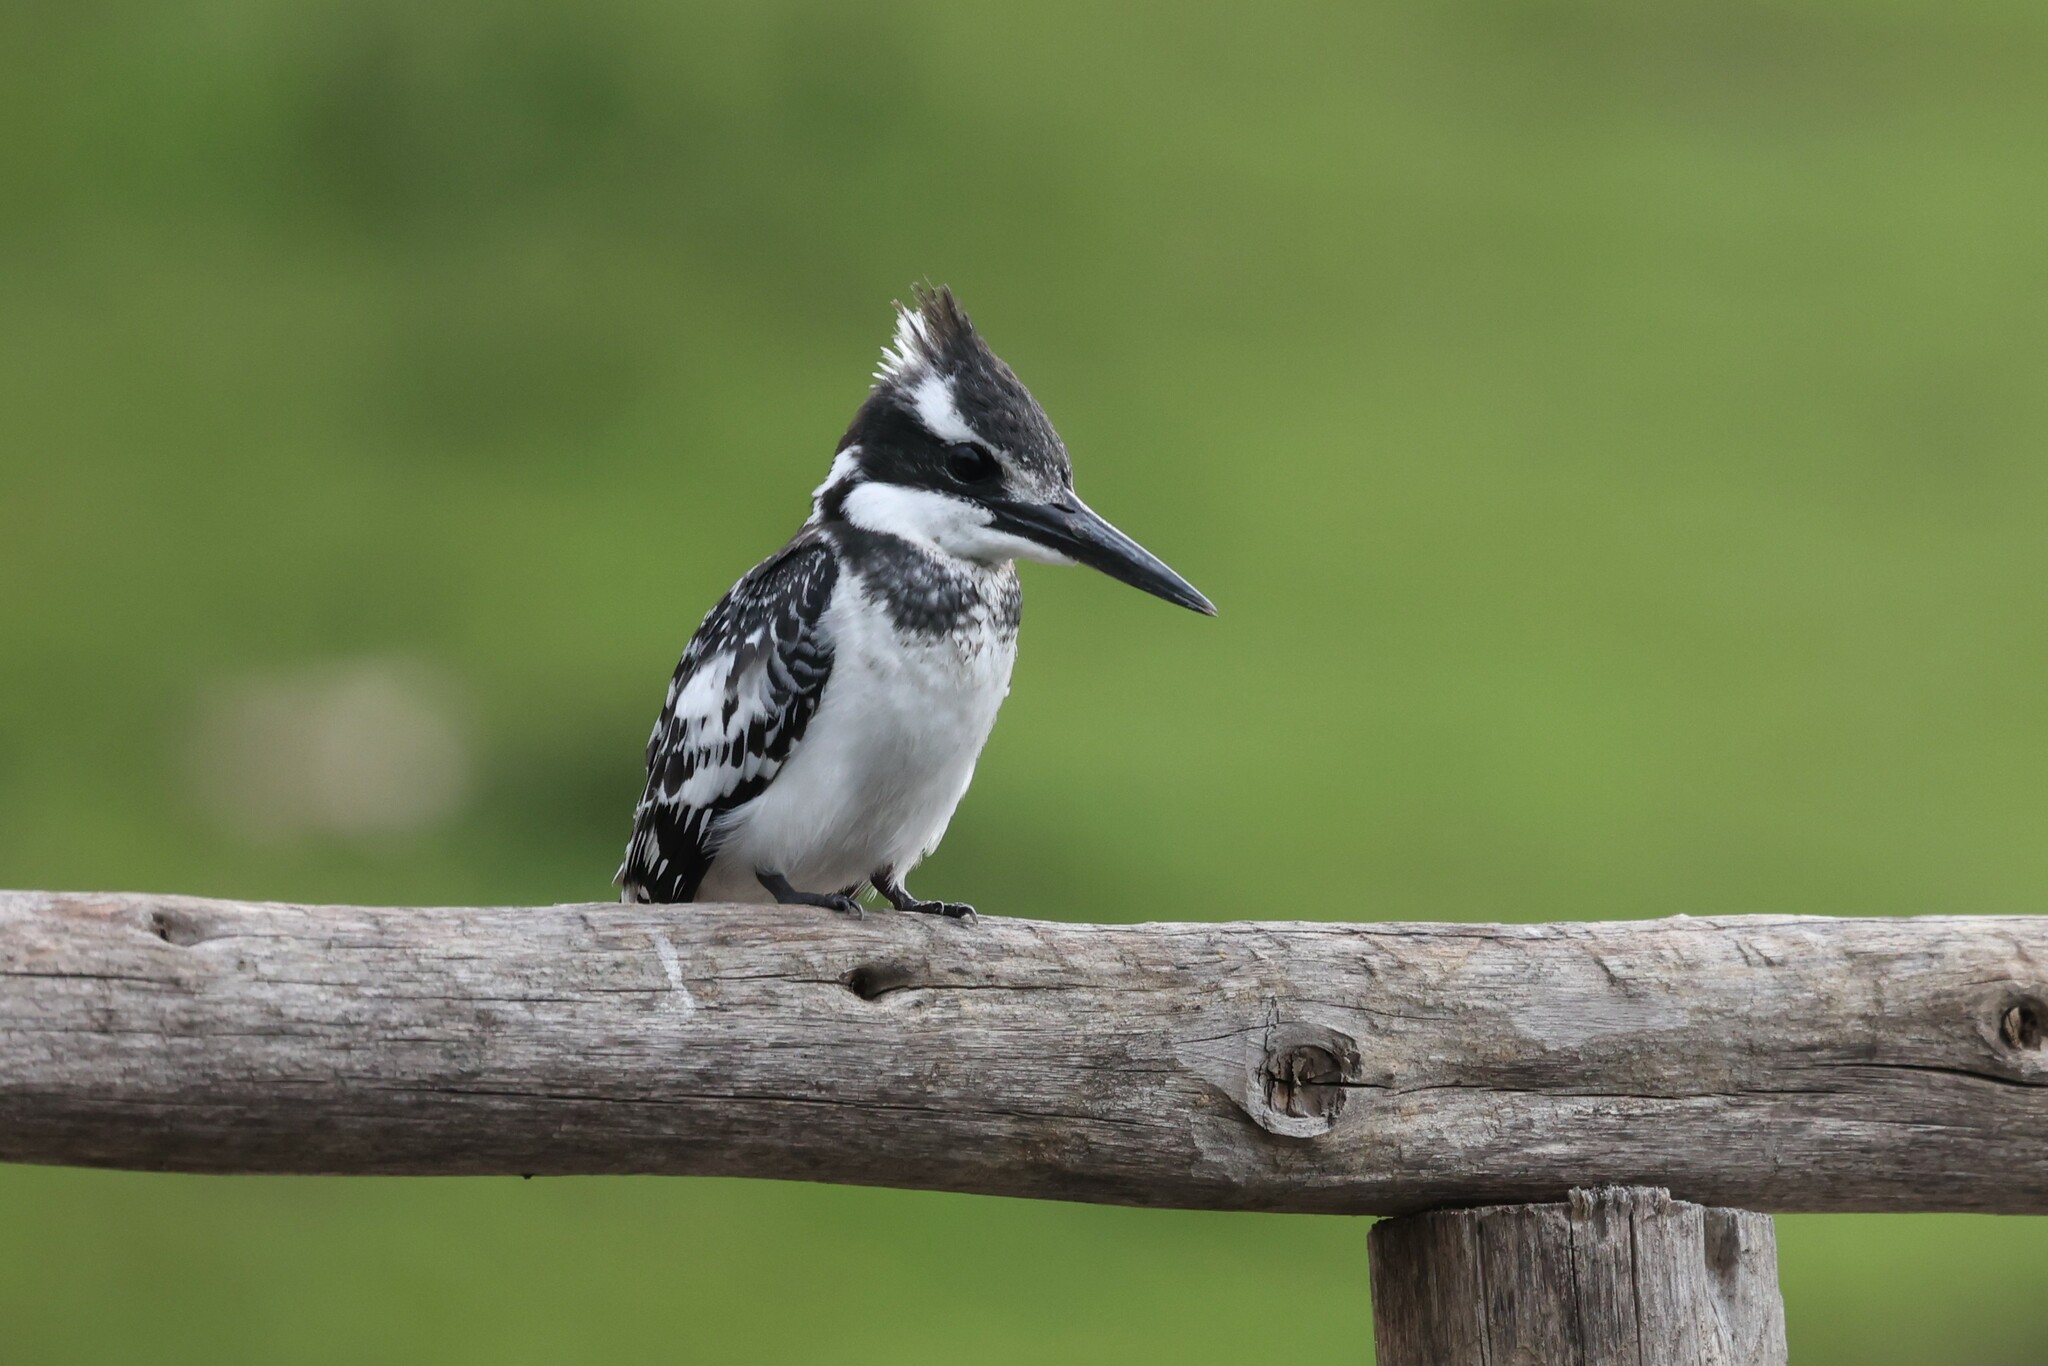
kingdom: Animalia
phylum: Chordata
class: Aves
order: Coraciiformes
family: Alcedinidae
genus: Ceryle
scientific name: Ceryle rudis
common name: Pied kingfisher
